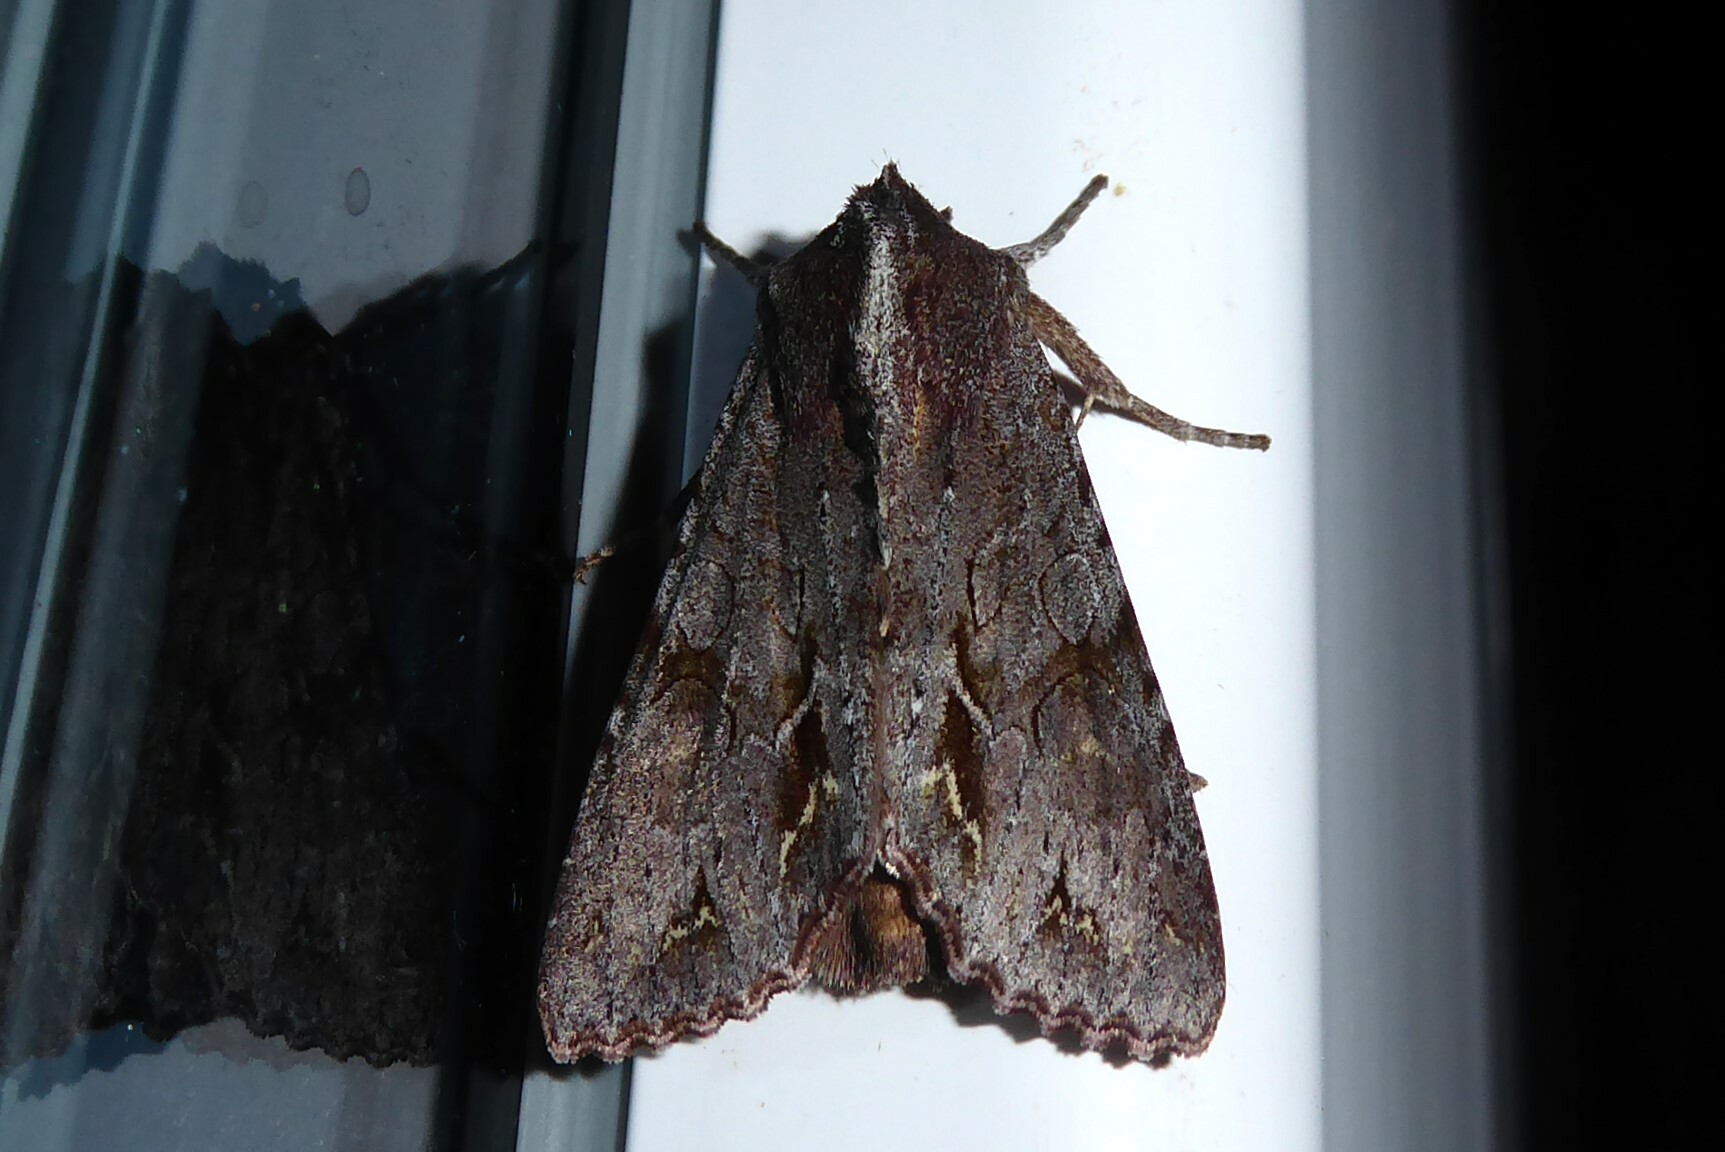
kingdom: Animalia
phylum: Arthropoda
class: Insecta
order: Lepidoptera
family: Noctuidae
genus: Ichneutica
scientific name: Ichneutica
